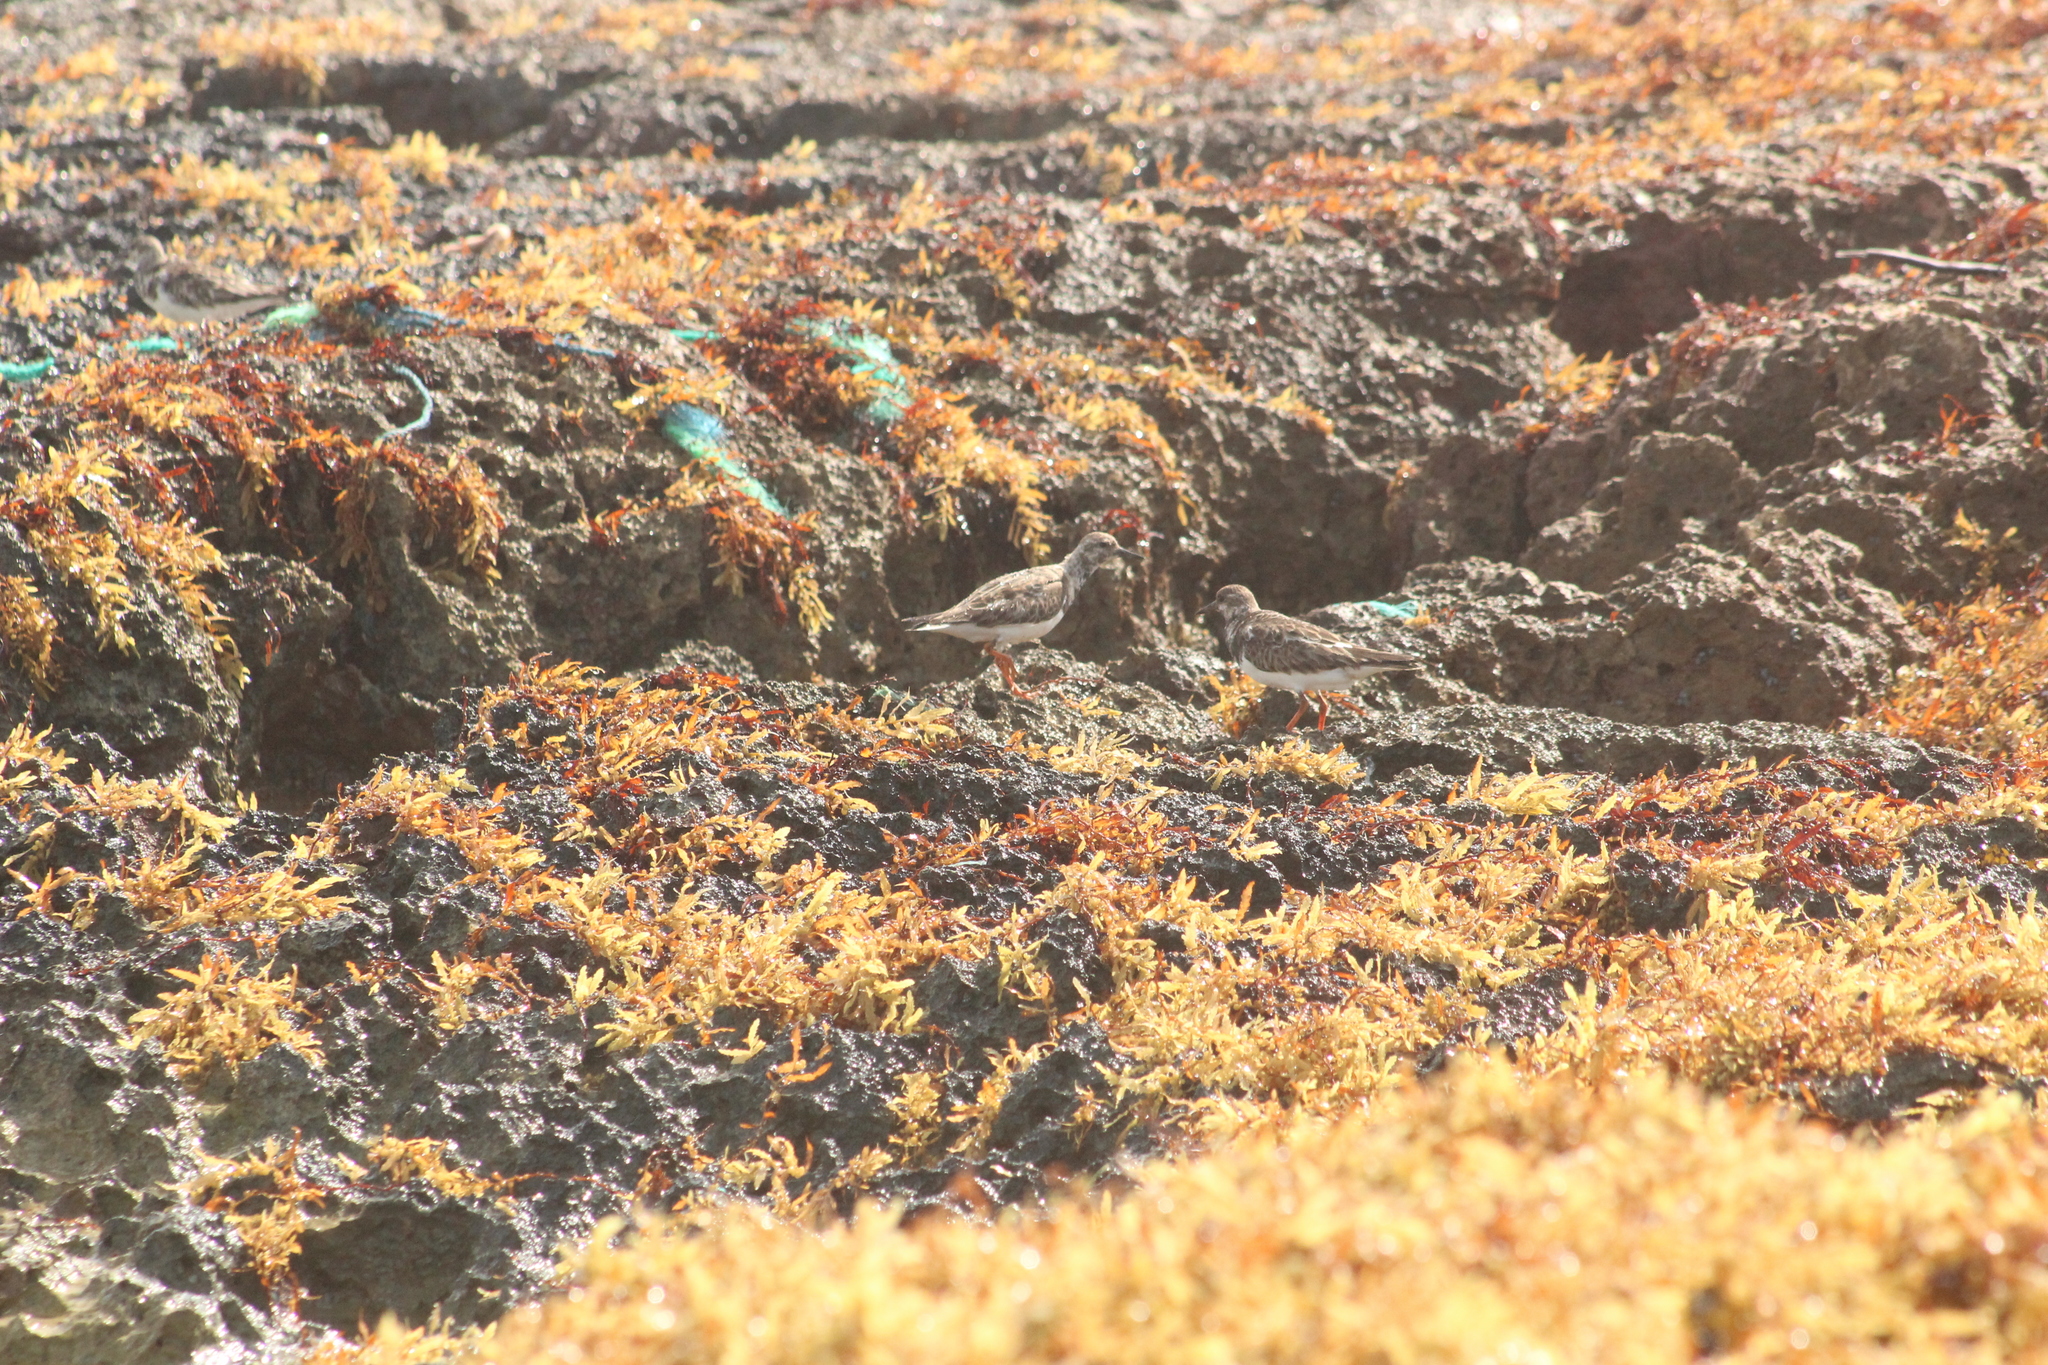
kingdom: Animalia
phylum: Chordata
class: Aves
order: Charadriiformes
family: Scolopacidae
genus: Arenaria
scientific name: Arenaria interpres
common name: Ruddy turnstone
